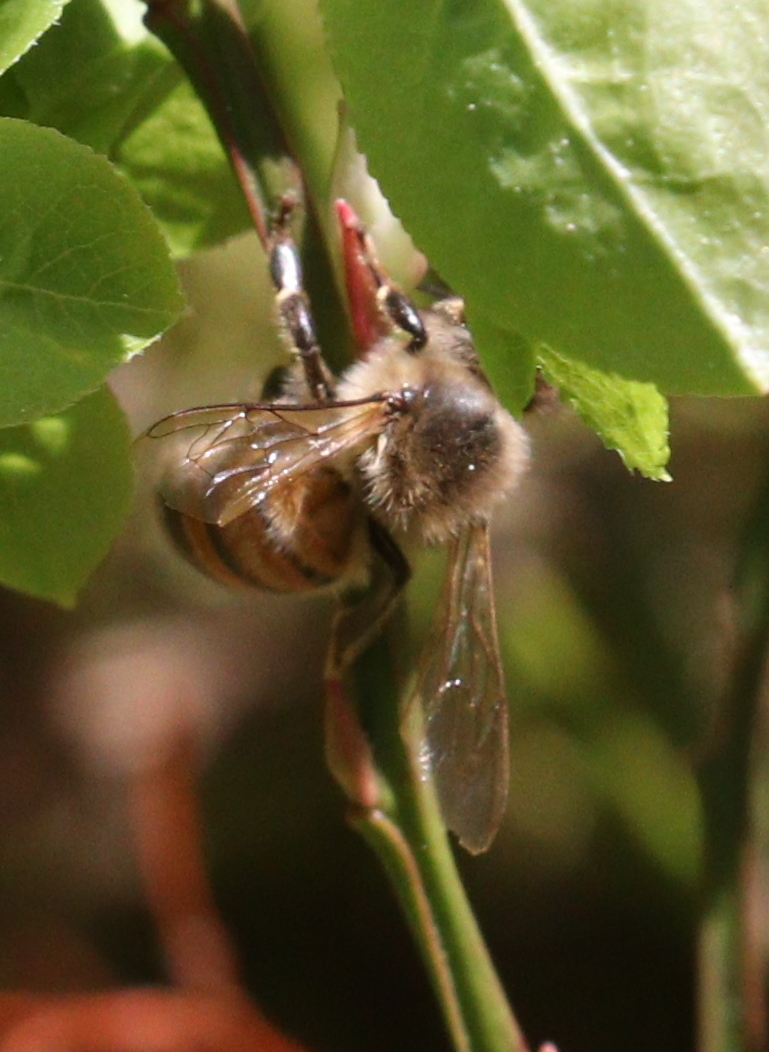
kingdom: Animalia
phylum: Arthropoda
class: Insecta
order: Hymenoptera
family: Apidae
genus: Apis
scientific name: Apis mellifera
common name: Honey bee
